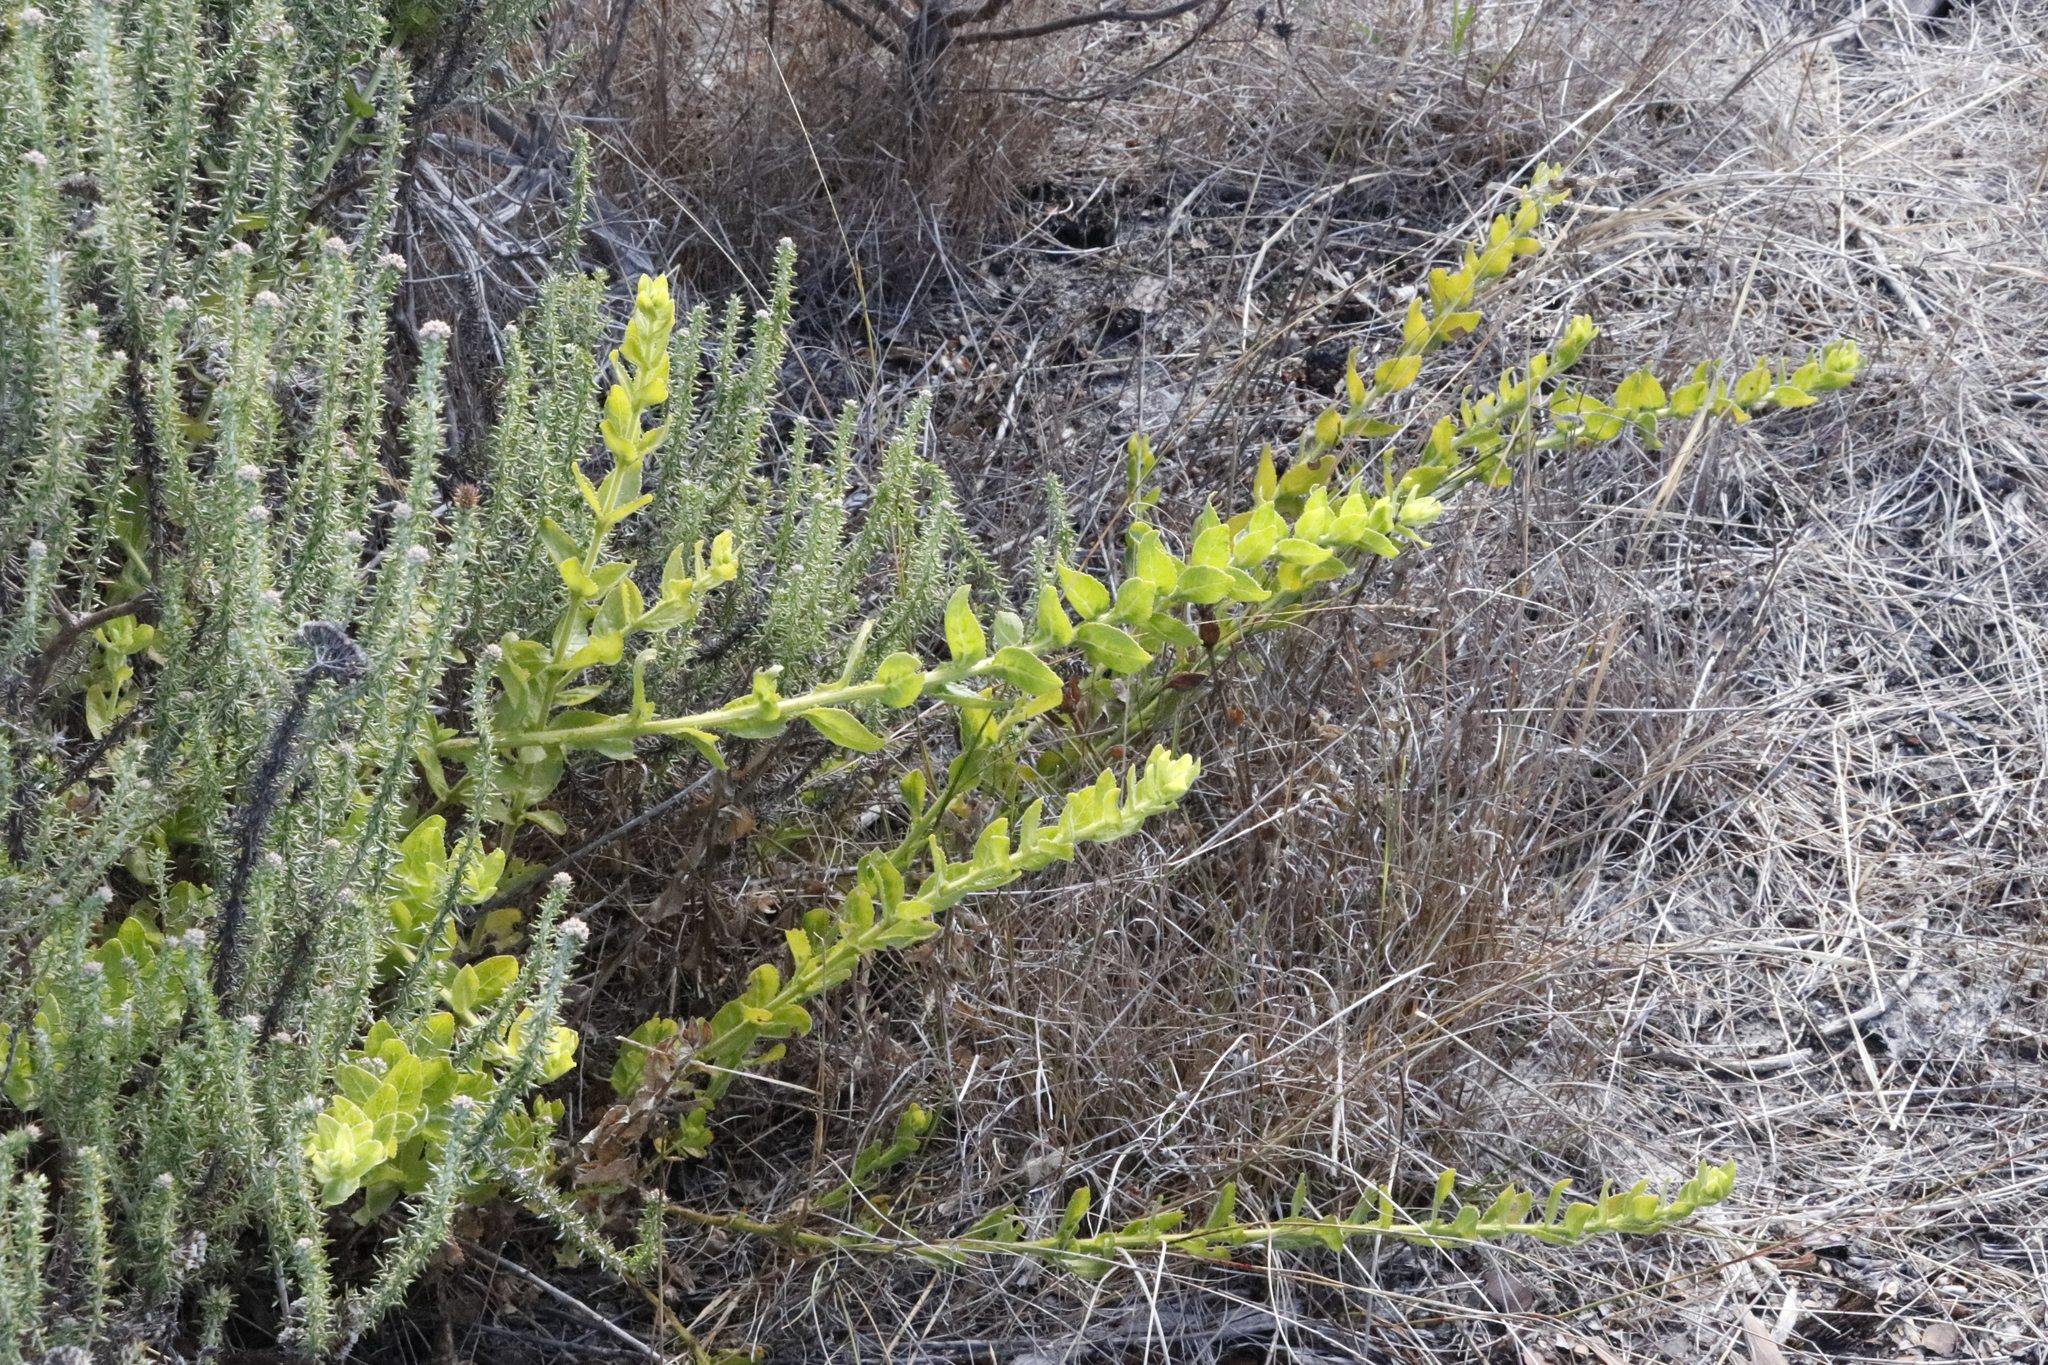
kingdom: Plantae
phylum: Tracheophyta
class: Magnoliopsida
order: Lamiales
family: Scrophulariaceae
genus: Oftia
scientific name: Oftia africana
